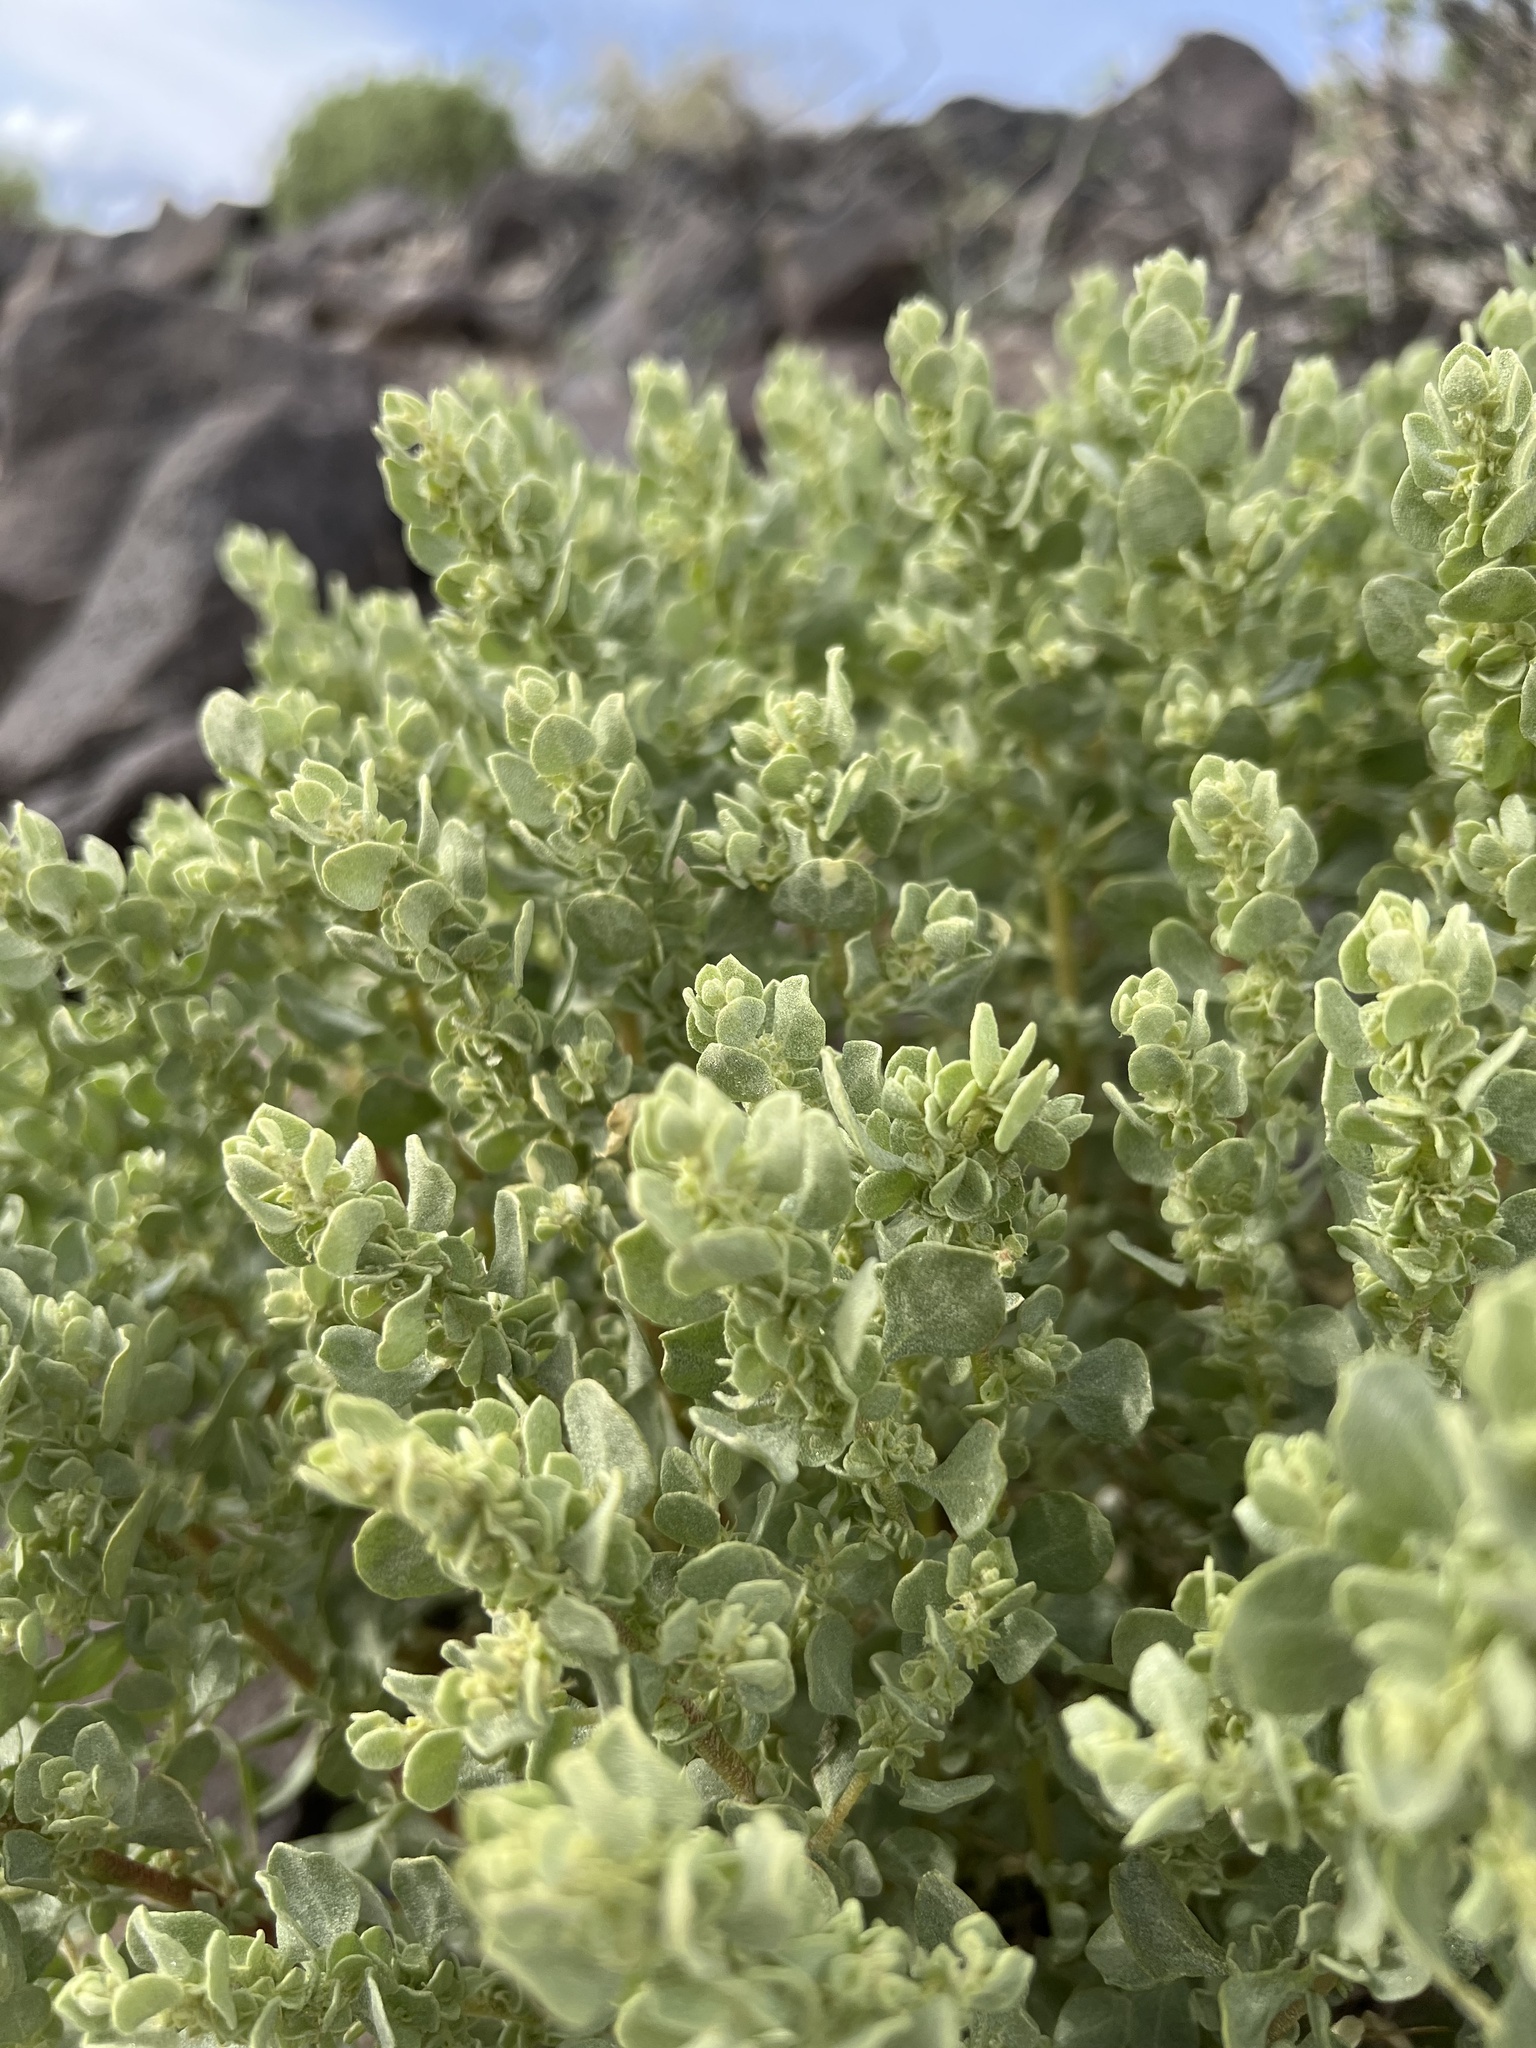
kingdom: Plantae
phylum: Tracheophyta
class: Magnoliopsida
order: Caryophyllales
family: Amaranthaceae
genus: Atriplex
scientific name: Atriplex confertifolia
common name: Shadscale
